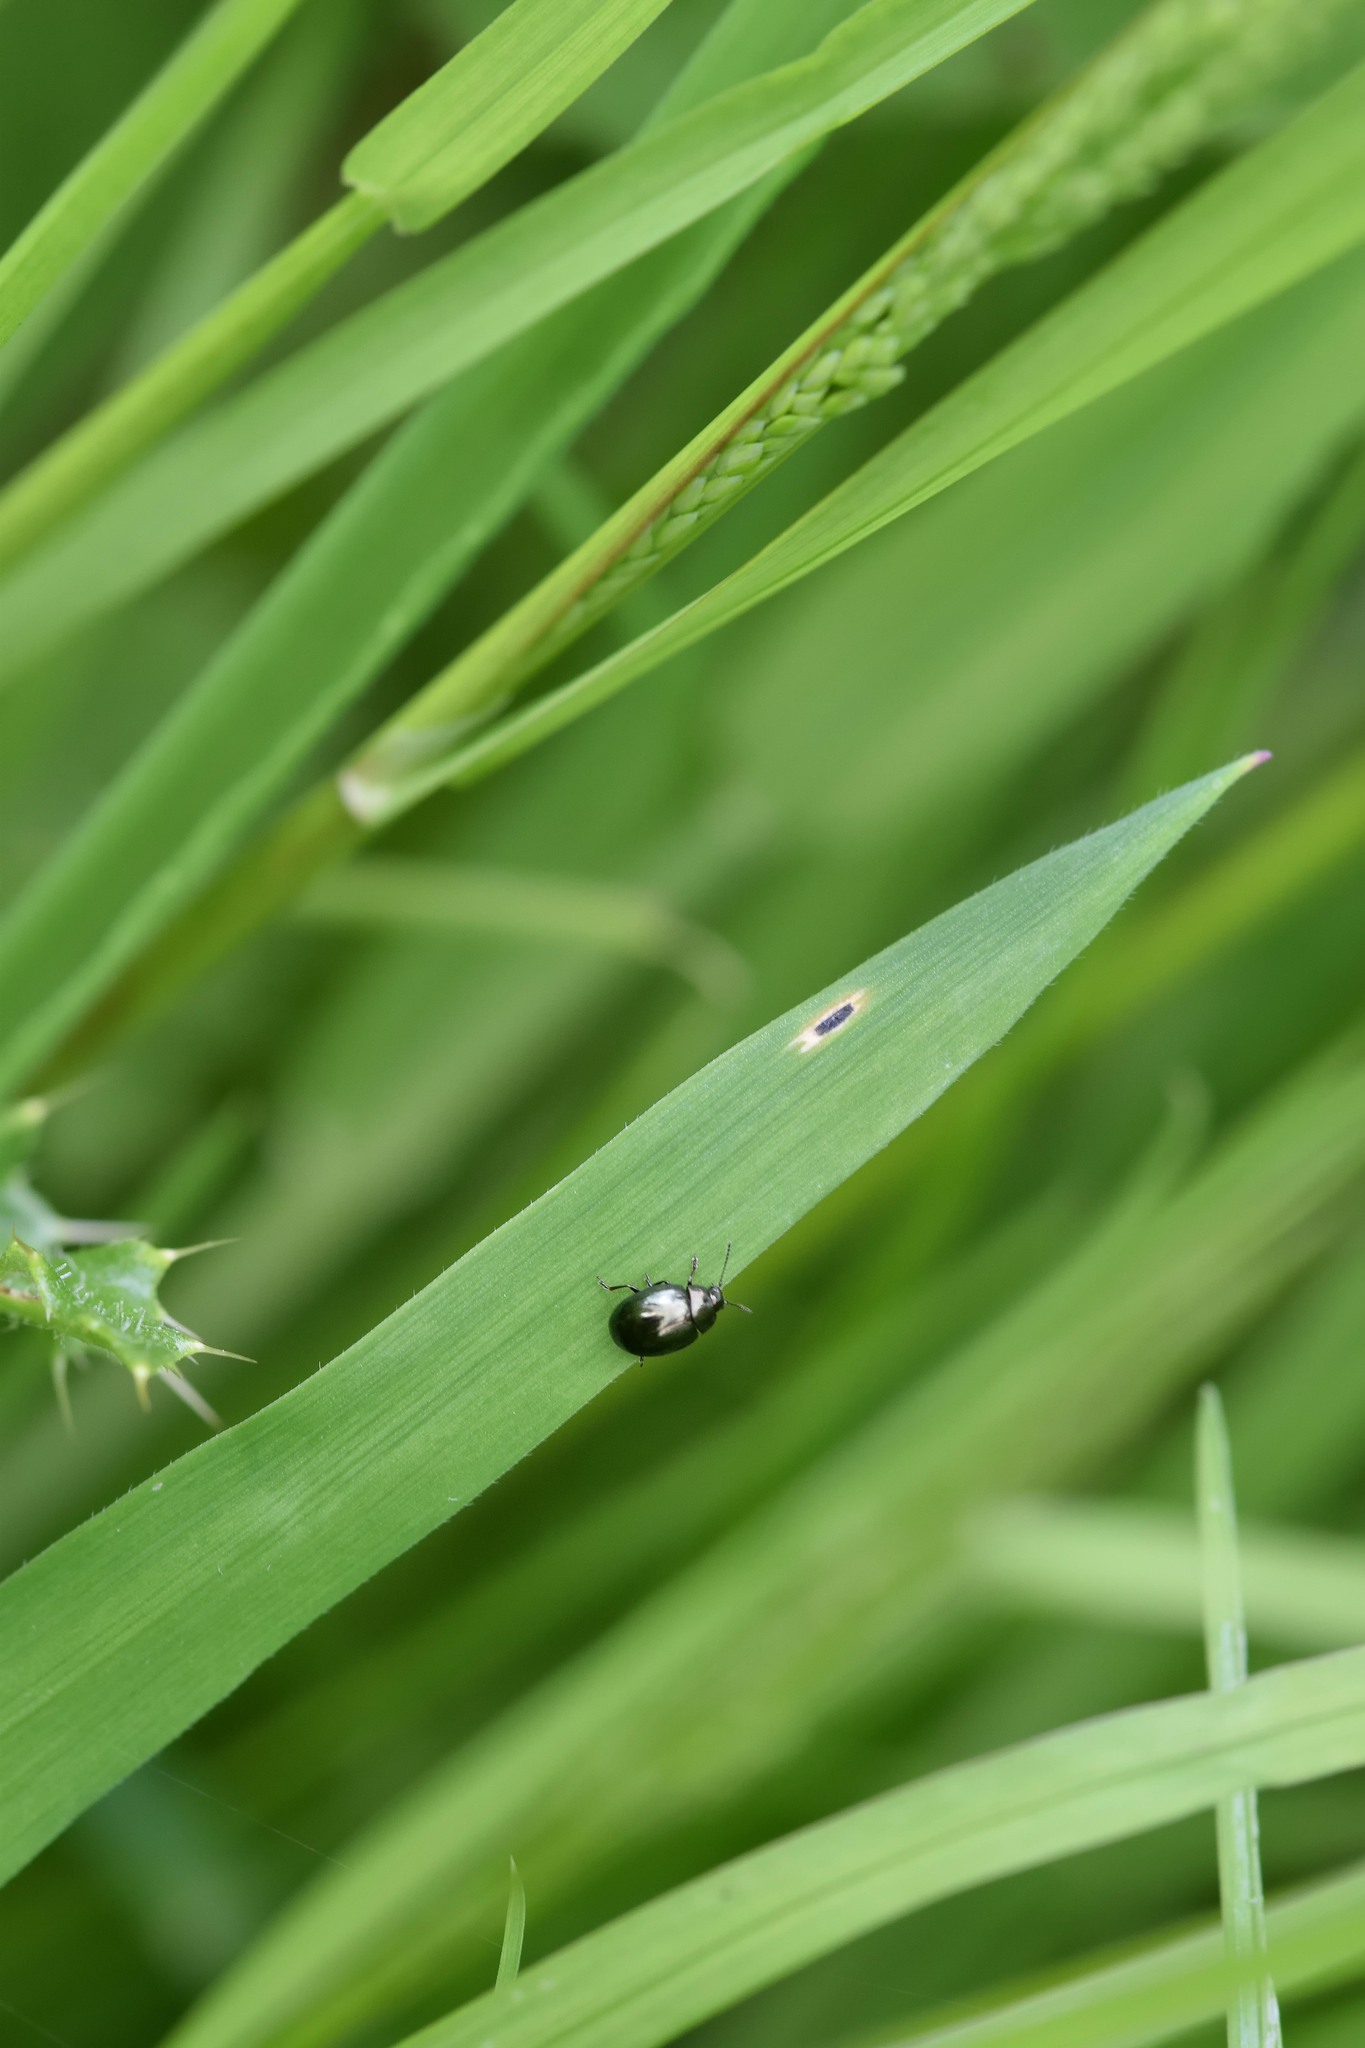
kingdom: Animalia
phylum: Arthropoda
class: Insecta
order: Coleoptera
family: Chrysomelidae
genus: Phaedon
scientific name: Phaedon tumidulus
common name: Celery leaf beetle
